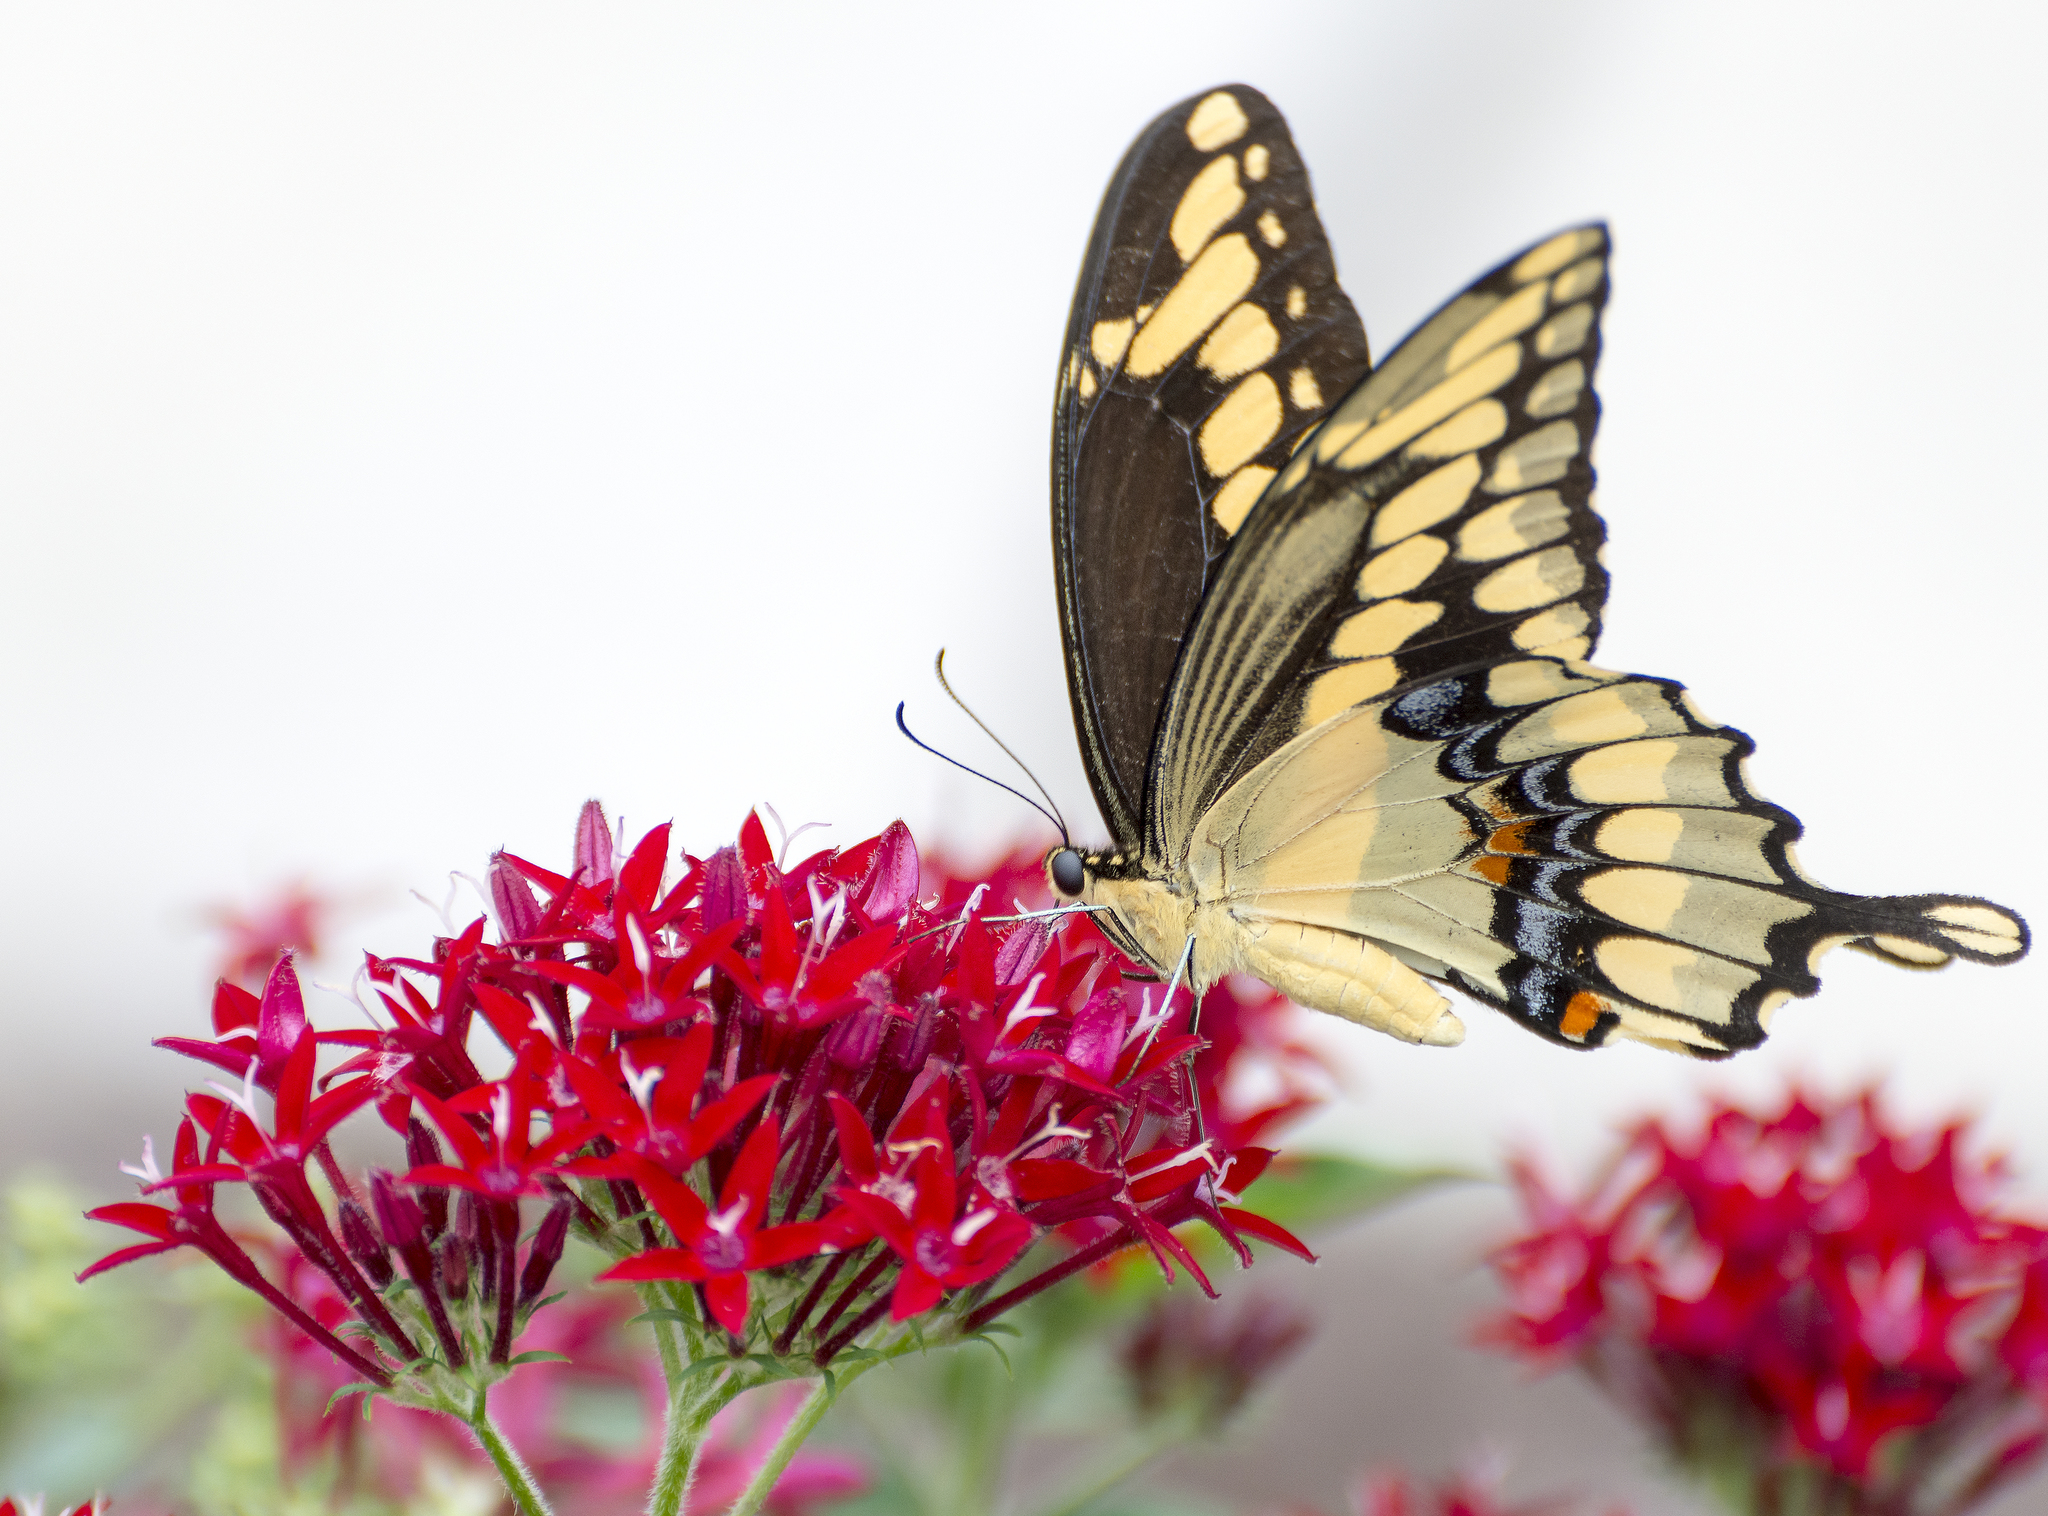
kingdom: Animalia
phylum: Arthropoda
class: Insecta
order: Lepidoptera
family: Papilionidae
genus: Papilio
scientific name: Papilio cresphontes
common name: Giant swallowtail
